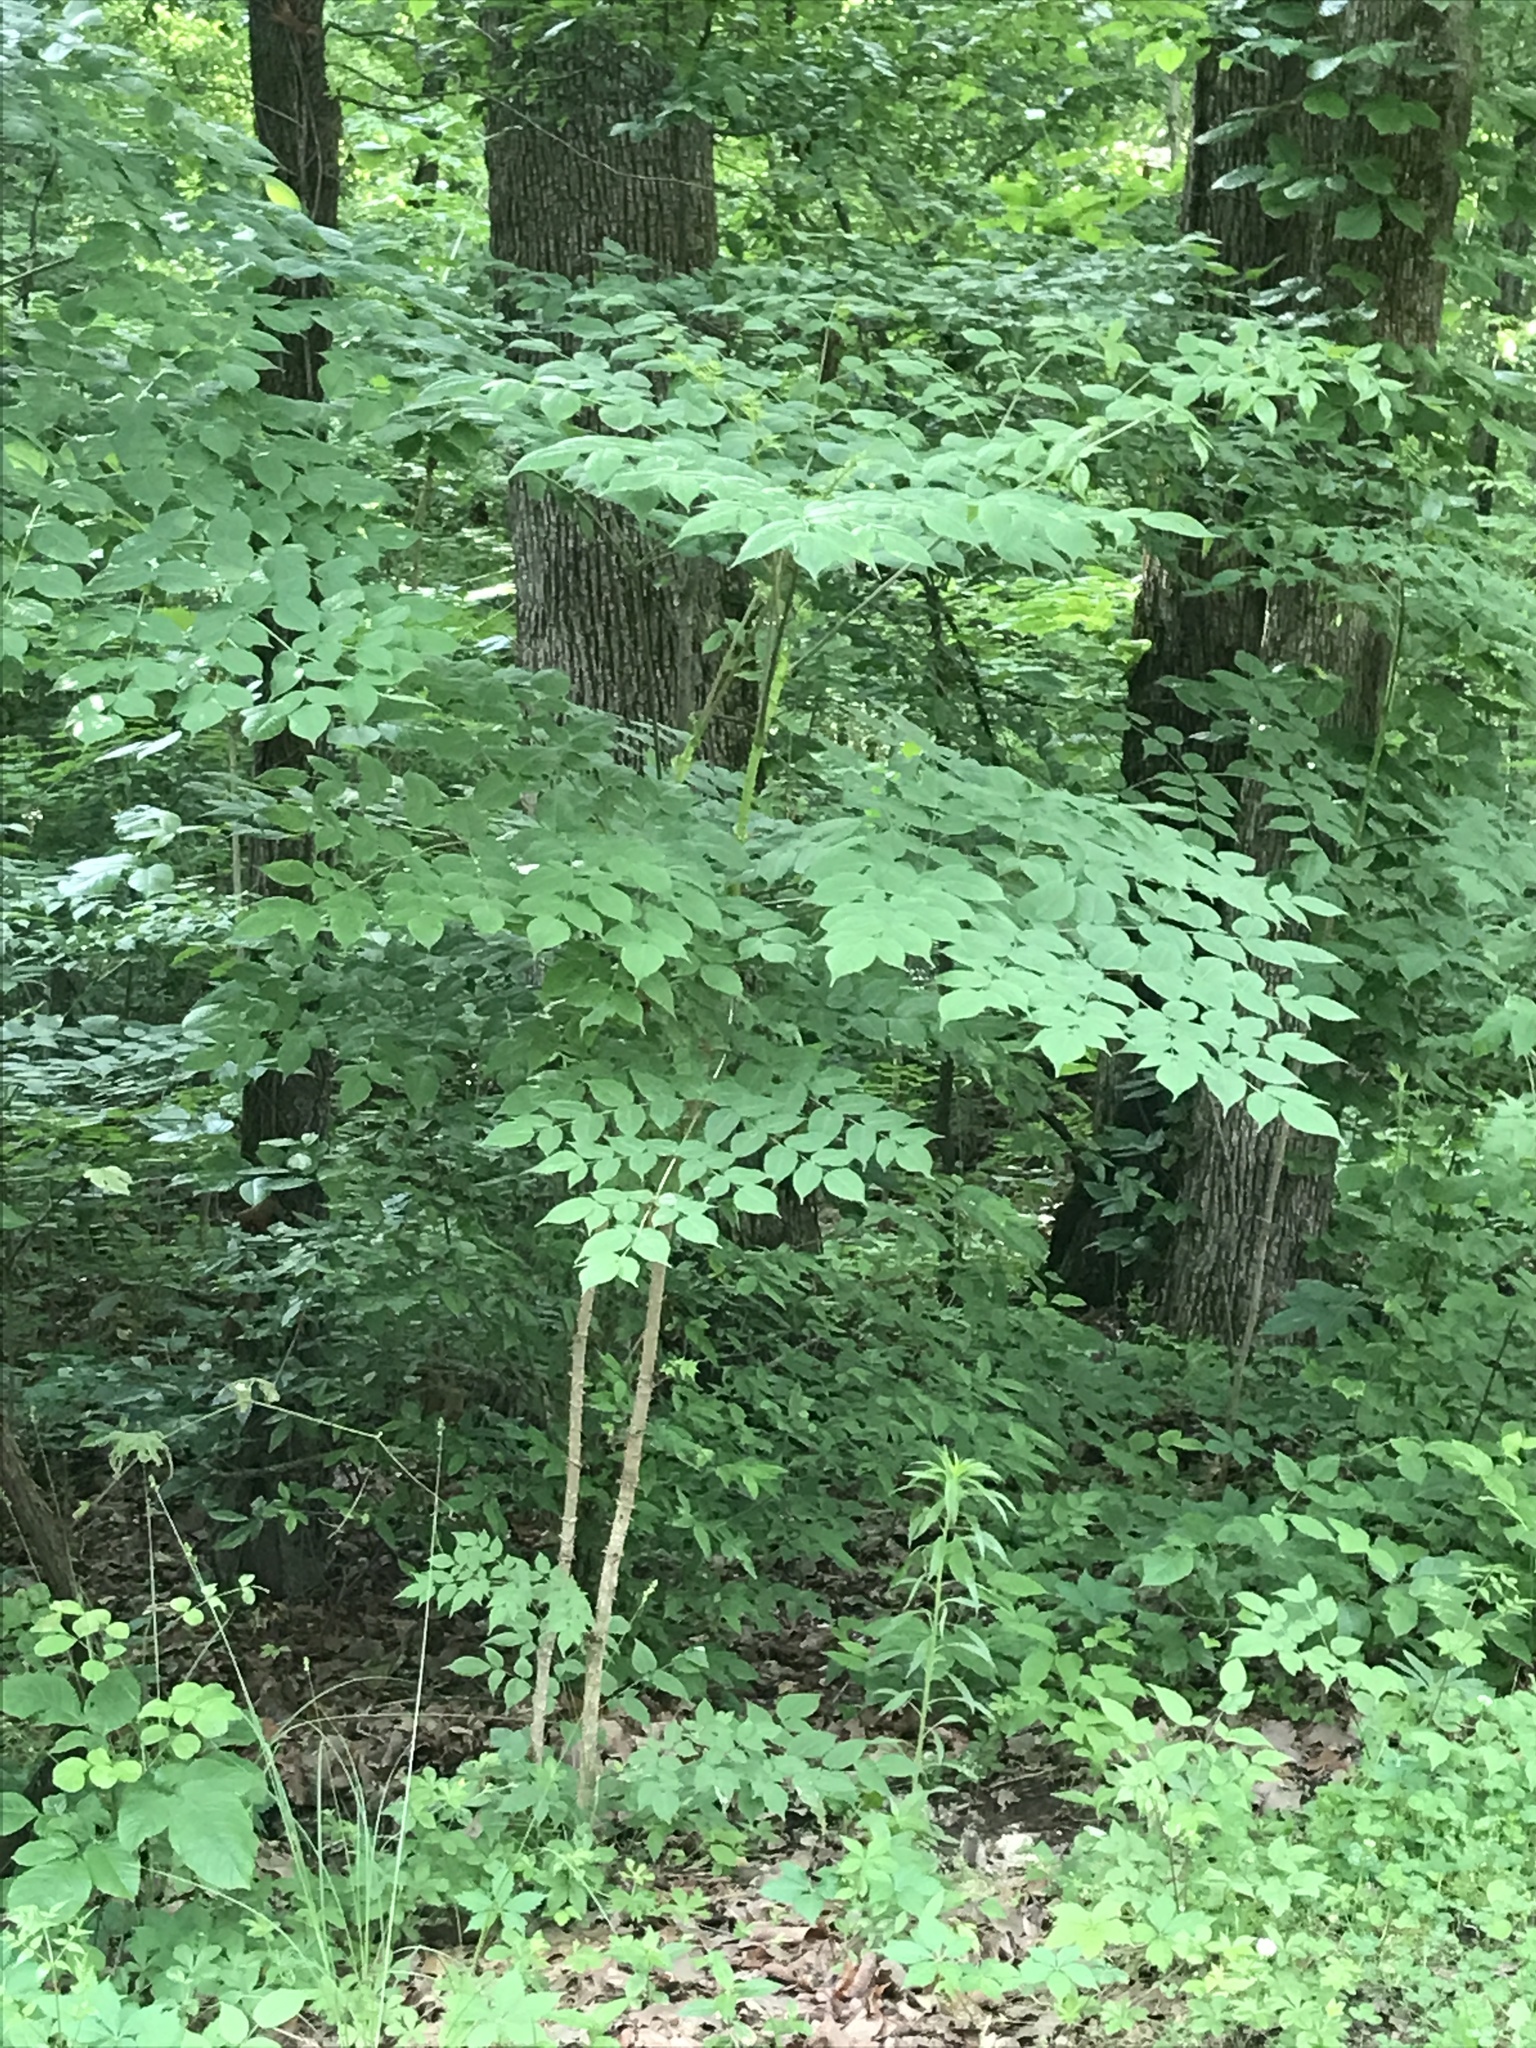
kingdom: Plantae
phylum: Tracheophyta
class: Magnoliopsida
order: Apiales
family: Araliaceae
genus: Aralia
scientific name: Aralia spinosa
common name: Hercules'-club
